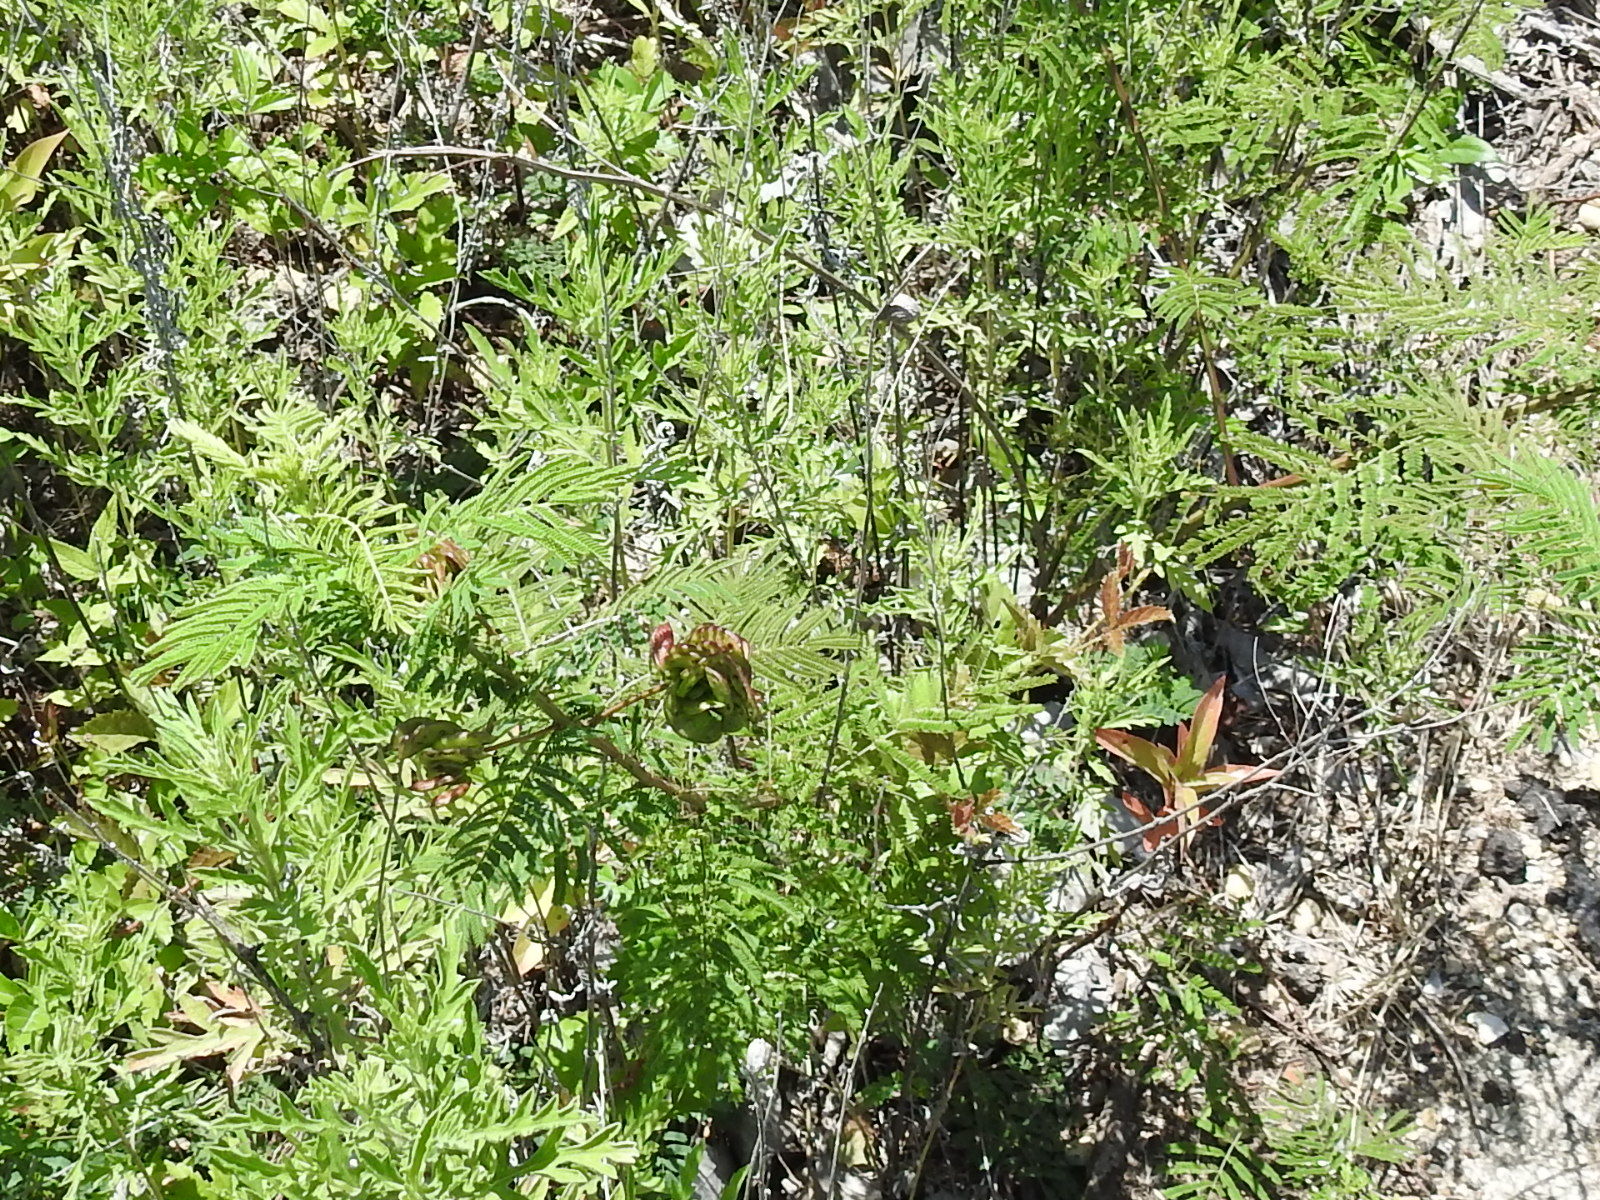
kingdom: Plantae
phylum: Tracheophyta
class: Magnoliopsida
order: Fabales
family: Fabaceae
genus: Desmanthus
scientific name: Desmanthus illinoensis
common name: Illinois bundle-flower
